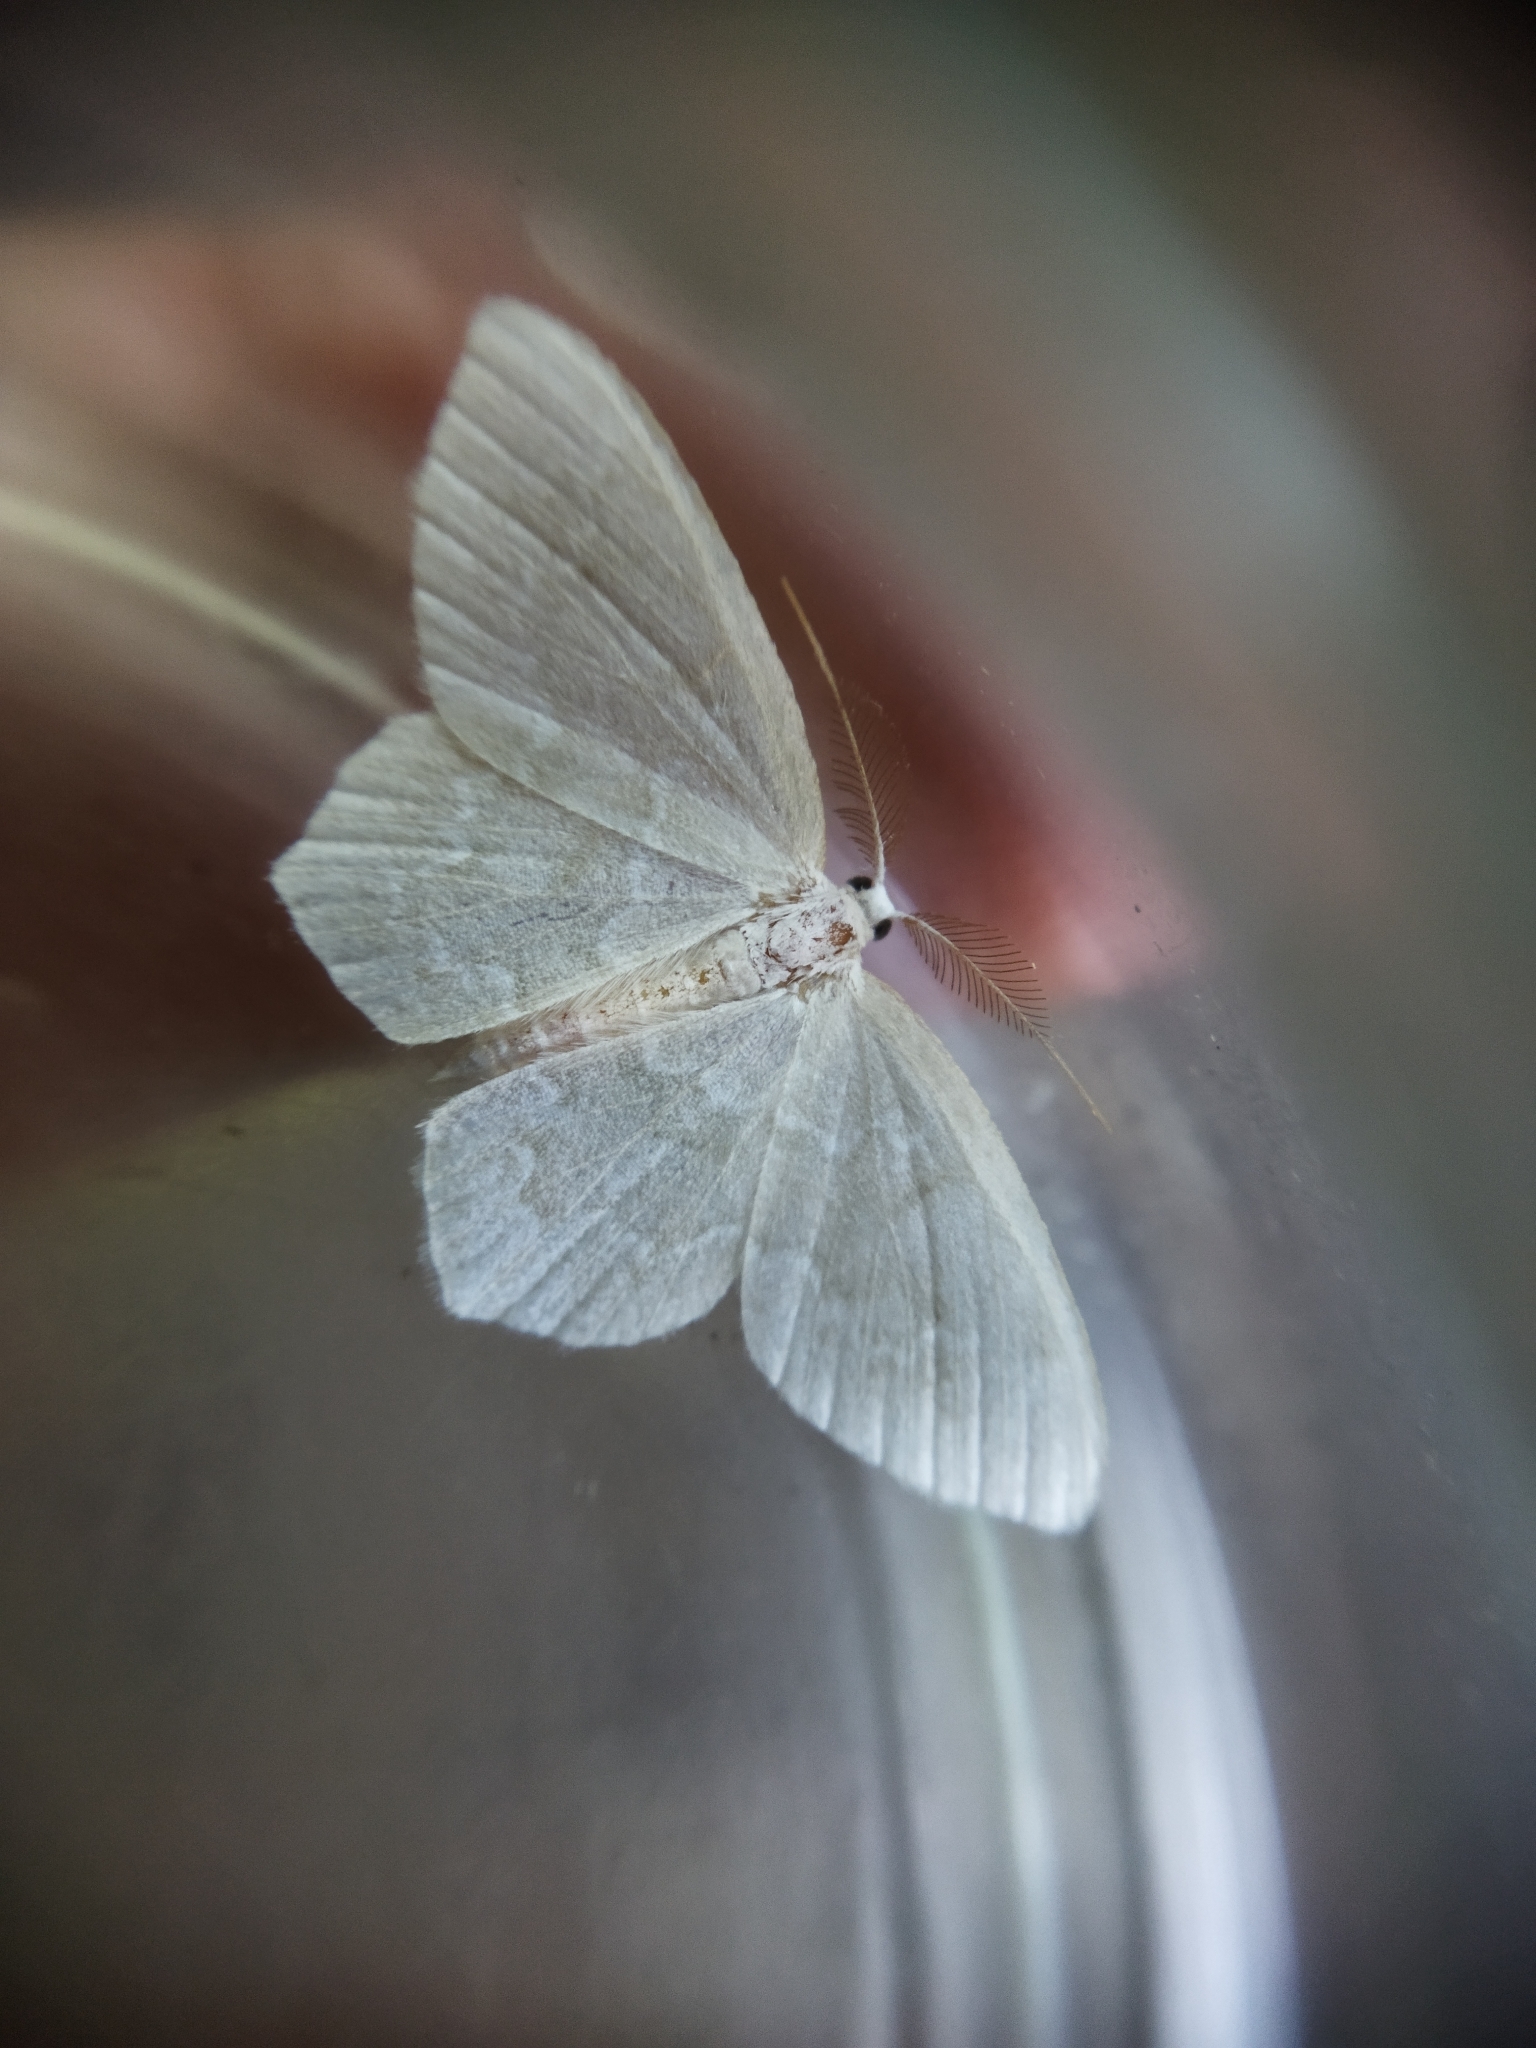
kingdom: Animalia
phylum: Arthropoda
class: Insecta
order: Lepidoptera
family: Geometridae
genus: Jodis
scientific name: Jodis putata
